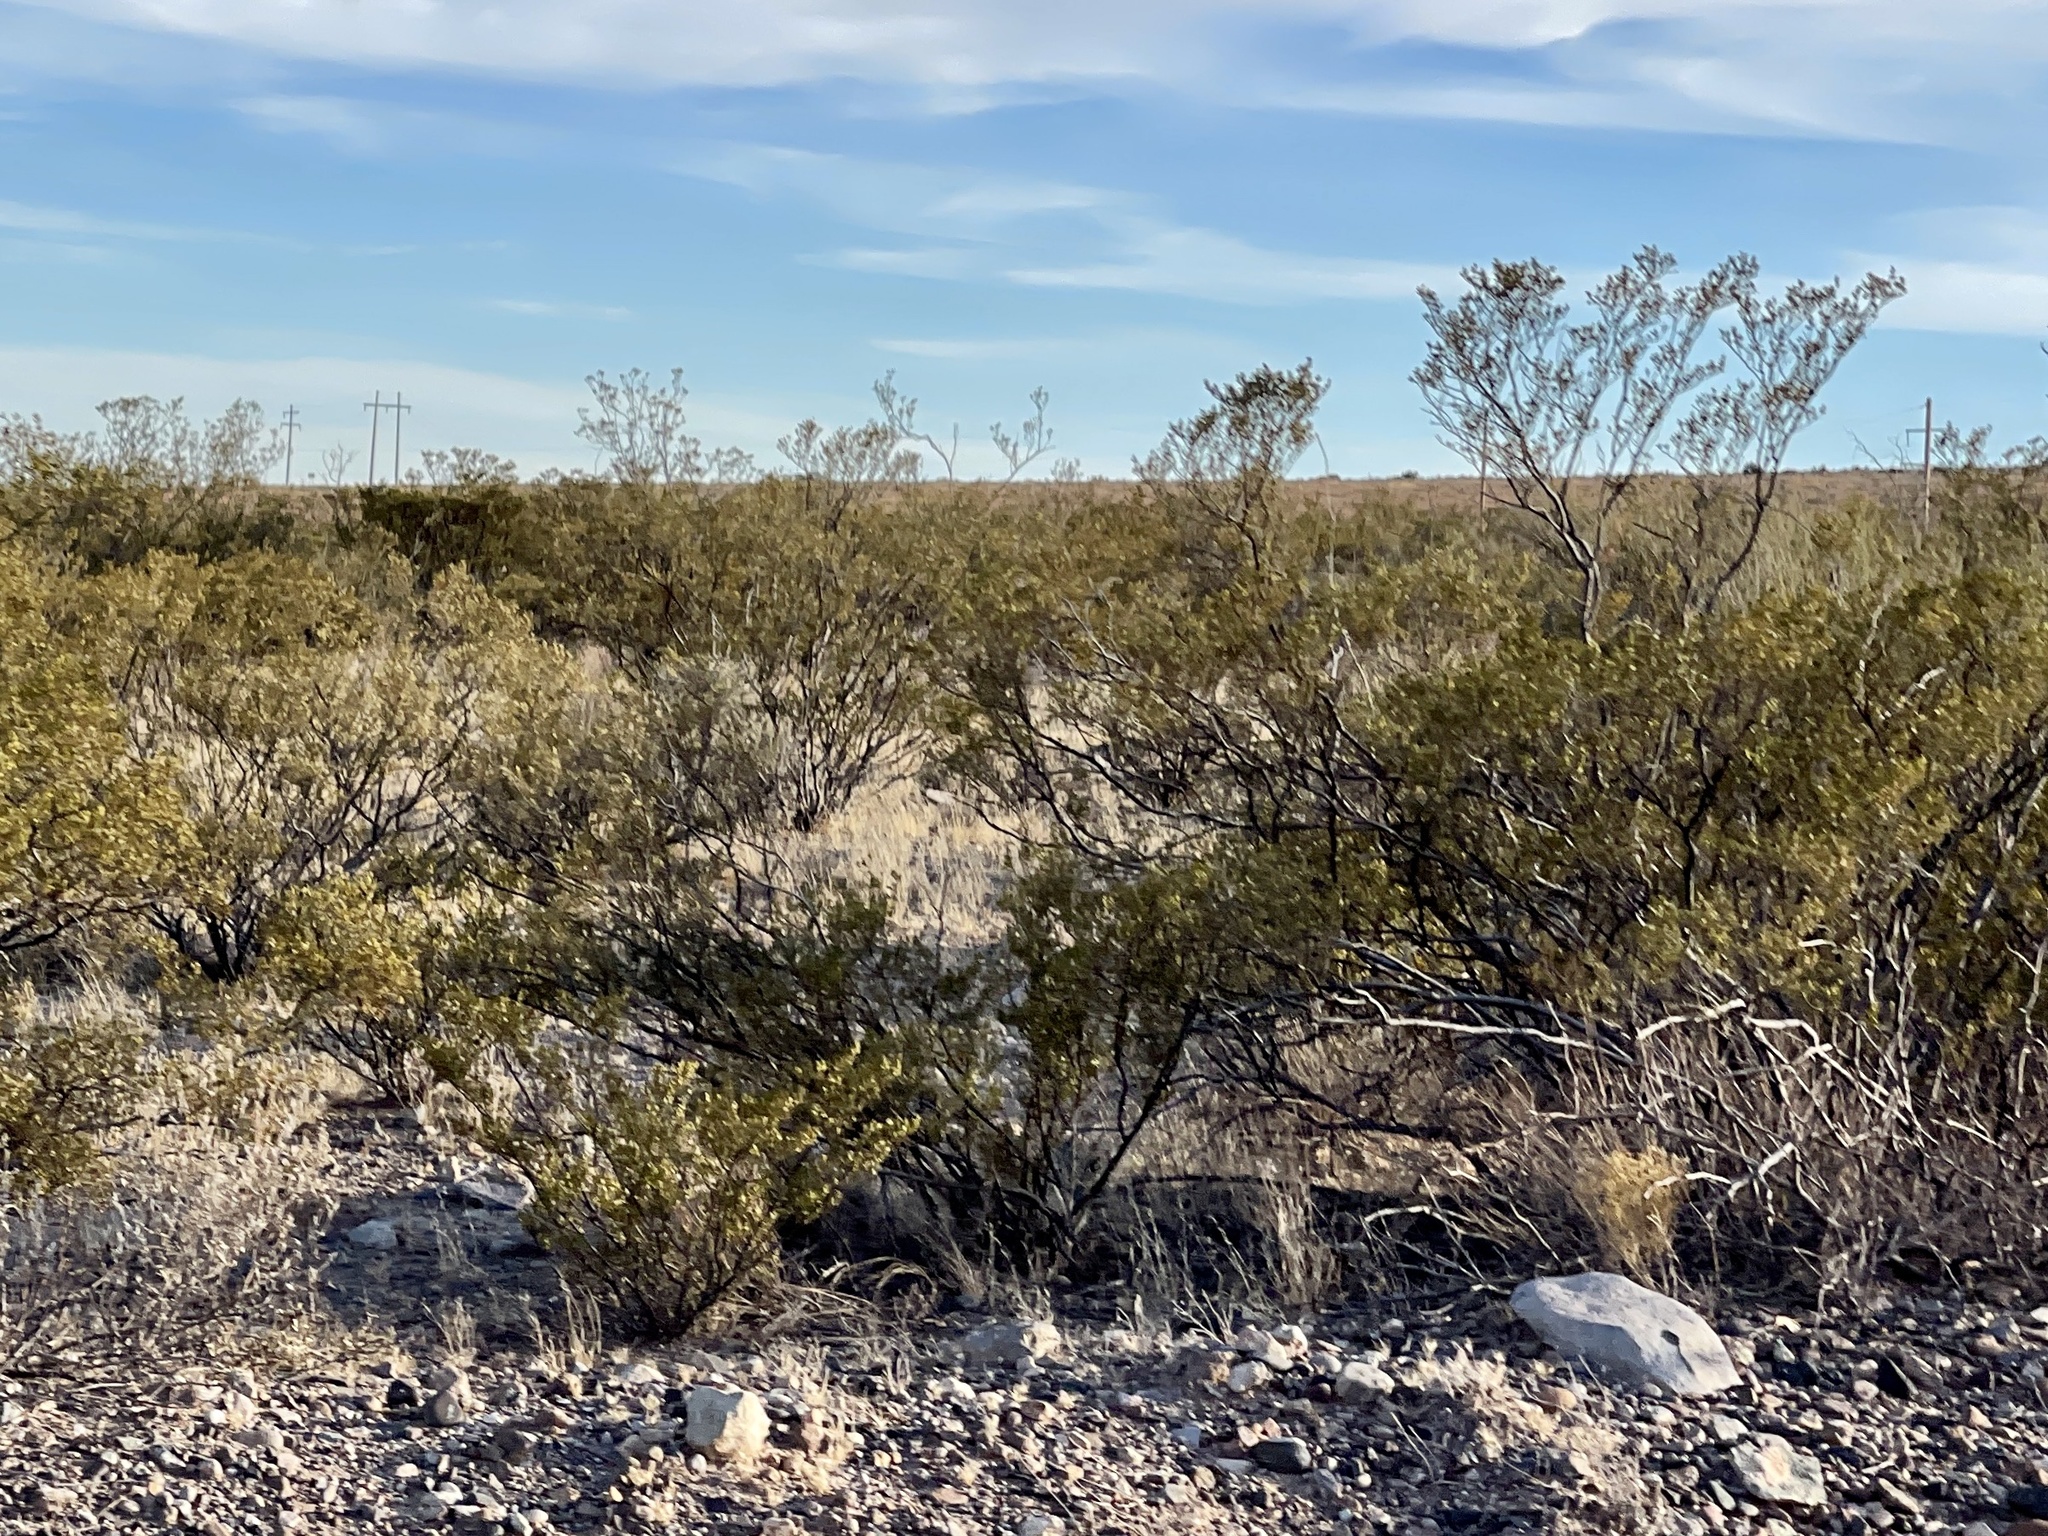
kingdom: Plantae
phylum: Tracheophyta
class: Magnoliopsida
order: Zygophyllales
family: Zygophyllaceae
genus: Larrea
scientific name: Larrea tridentata
